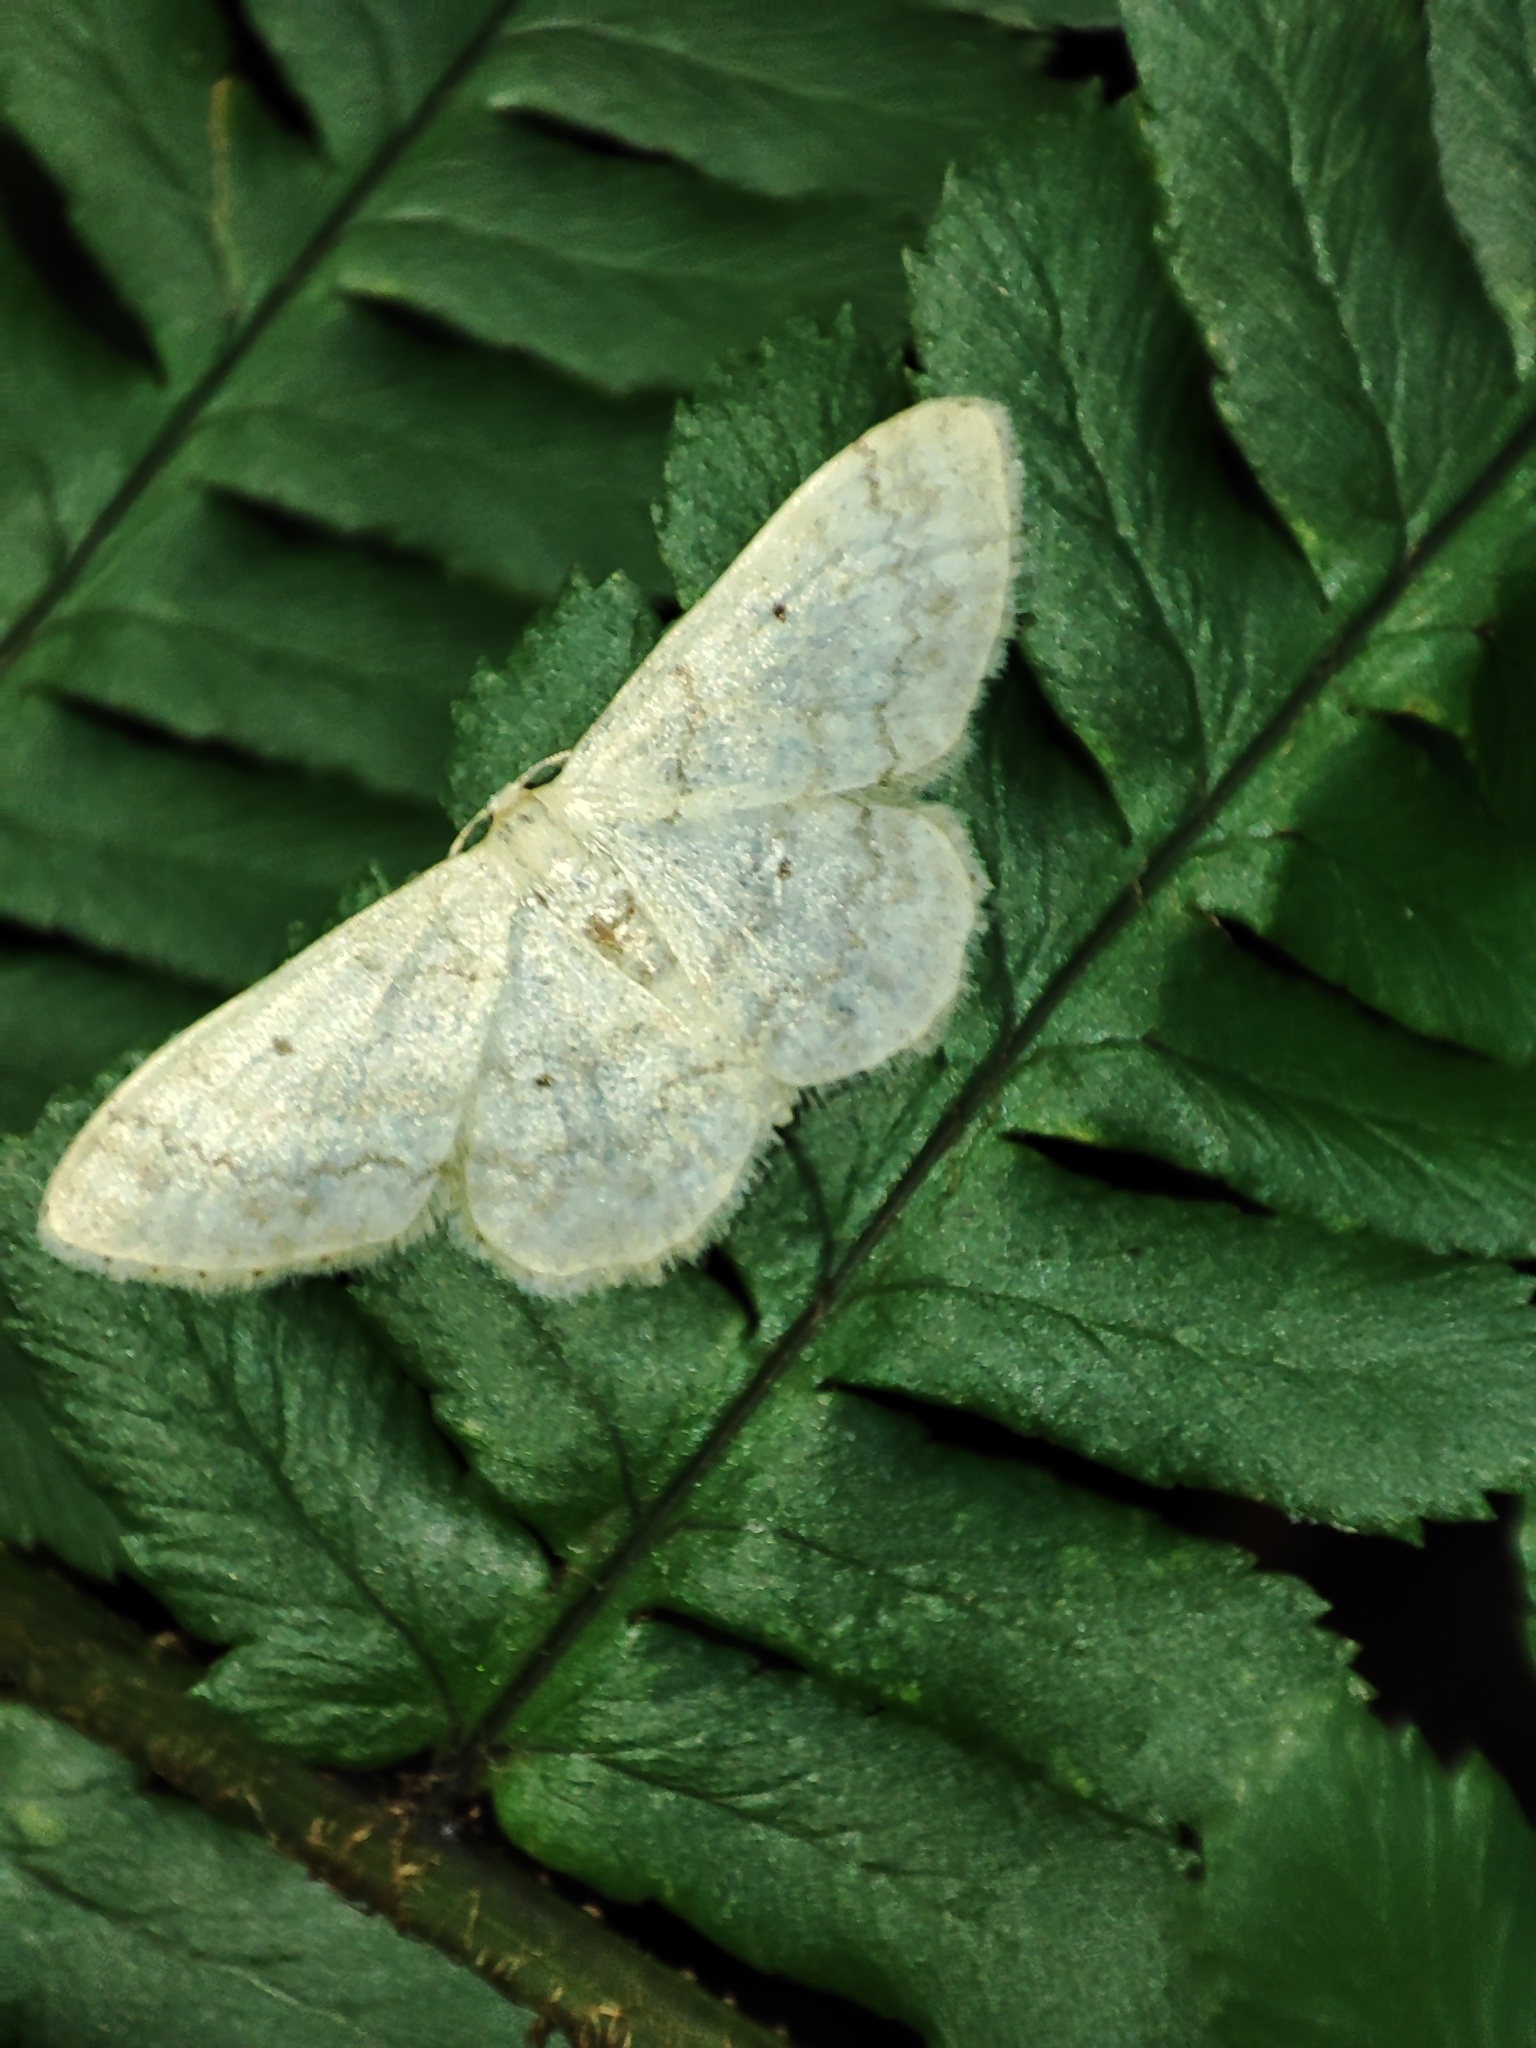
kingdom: Animalia
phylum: Arthropoda
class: Insecta
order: Lepidoptera
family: Geometridae
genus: Idaea
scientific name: Idaea biselata
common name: Small fan-footed wave
